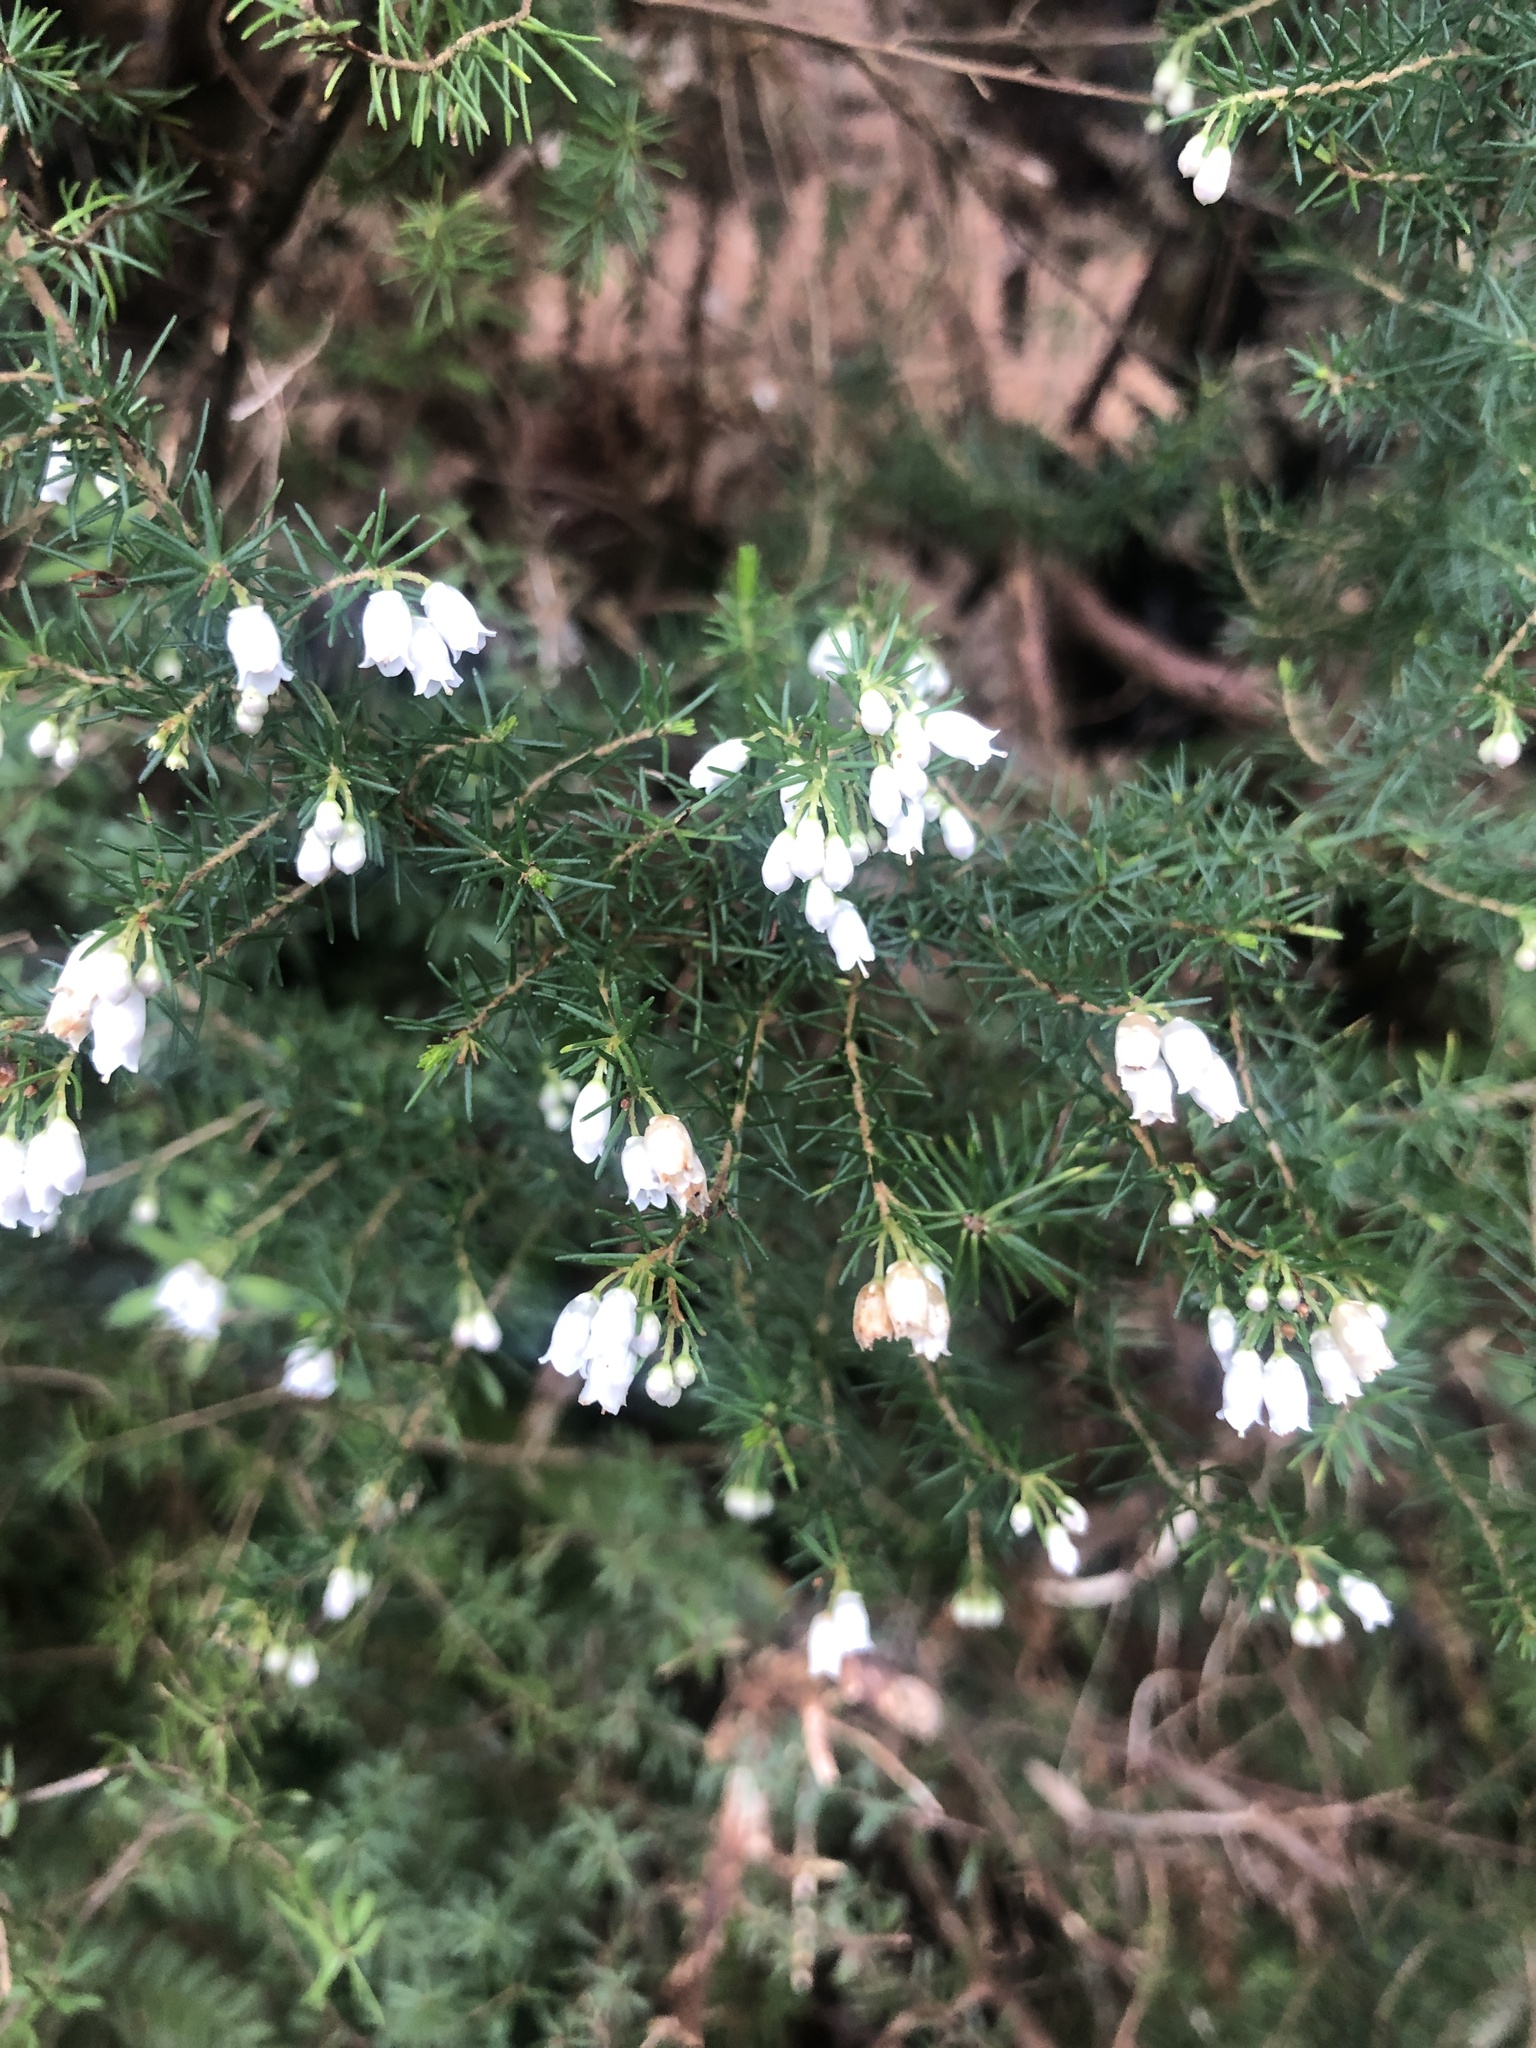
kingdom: Plantae
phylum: Tracheophyta
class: Magnoliopsida
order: Ericales
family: Ericaceae
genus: Erica
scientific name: Erica lusitanica
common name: Spanish heath
